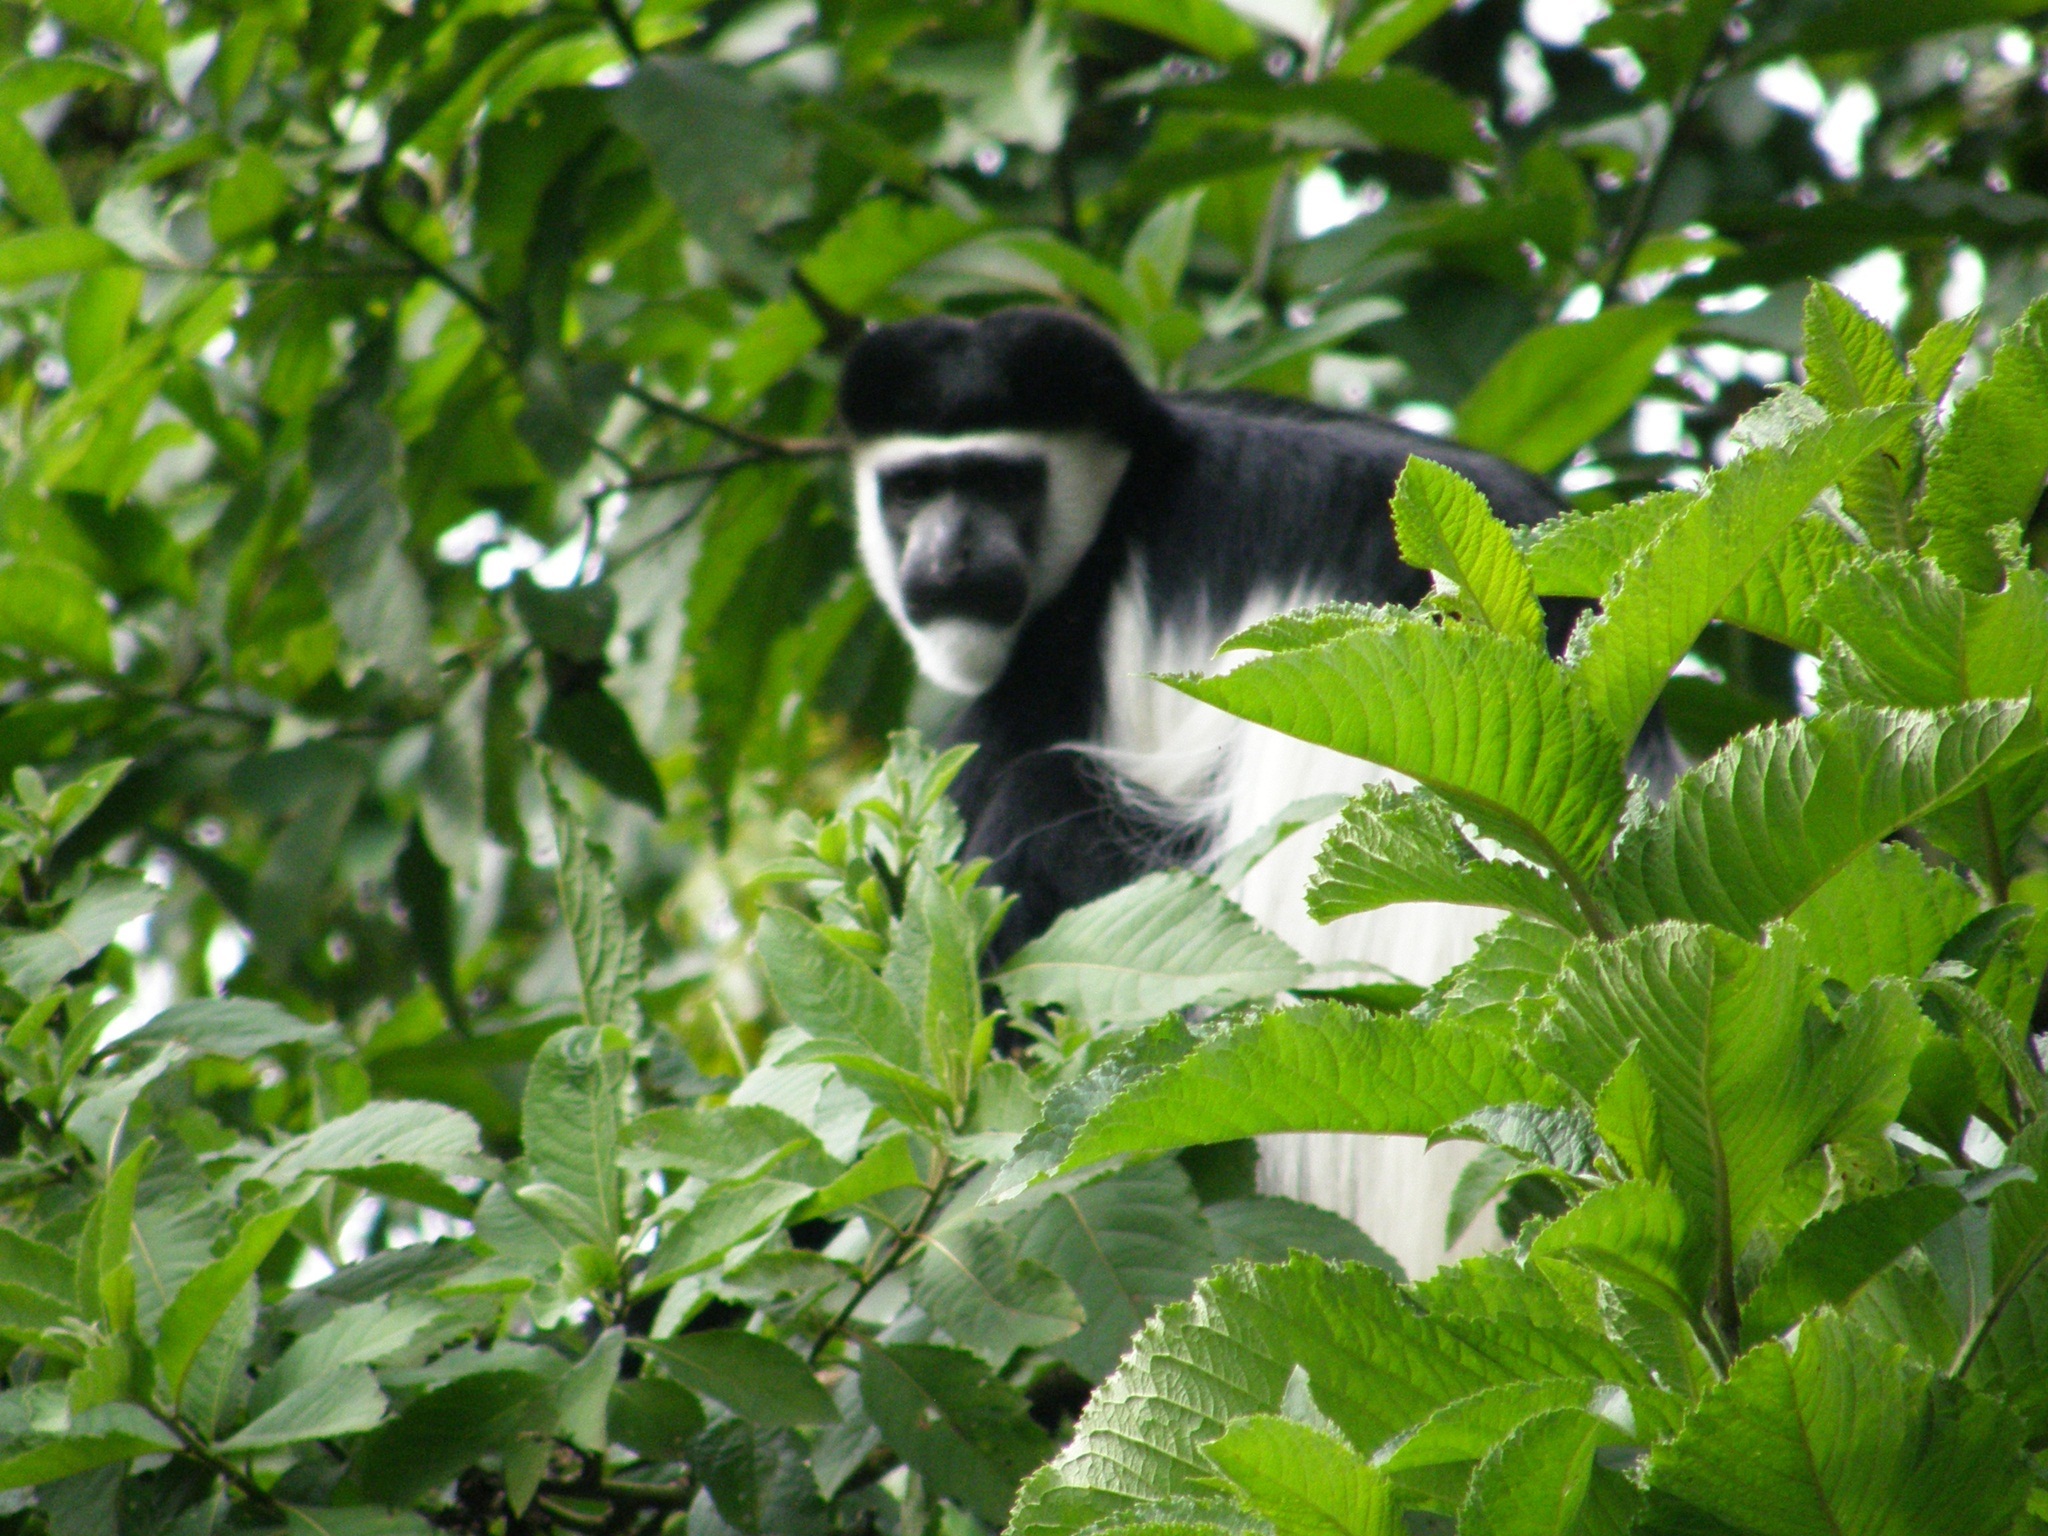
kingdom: Animalia
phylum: Chordata
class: Mammalia
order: Primates
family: Cercopithecidae
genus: Colobus
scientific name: Colobus guereza
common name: Mantled guereza
